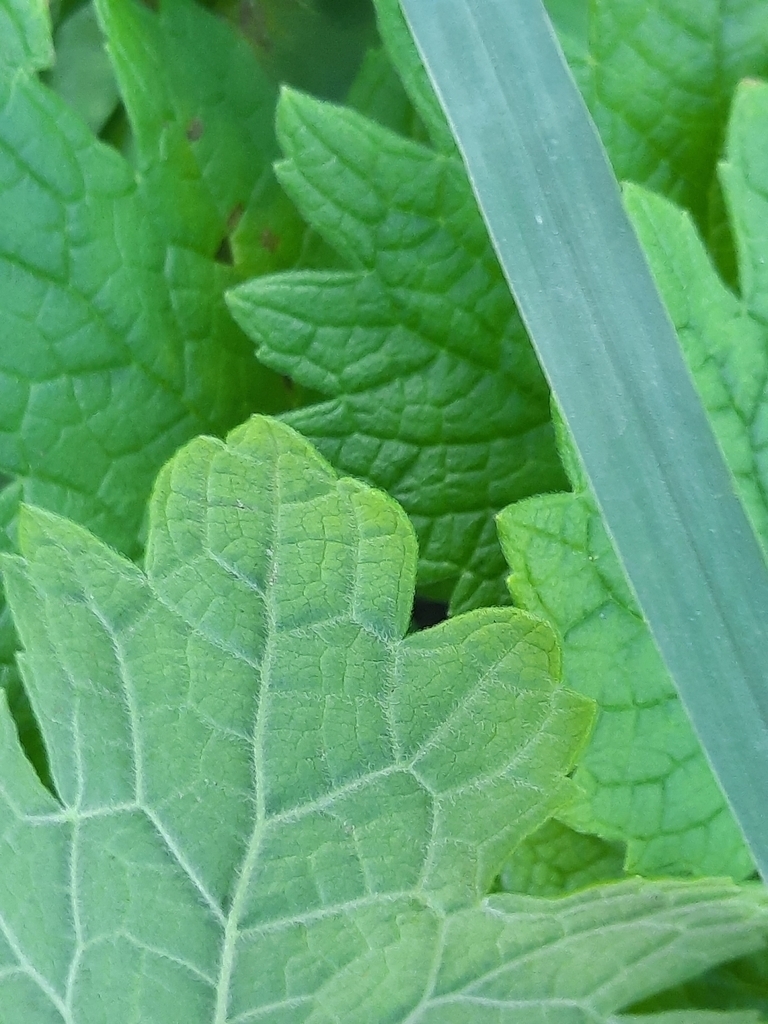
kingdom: Plantae
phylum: Tracheophyta
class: Magnoliopsida
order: Lamiales
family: Lamiaceae
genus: Leonurus
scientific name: Leonurus cardiaca
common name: Motherwort
